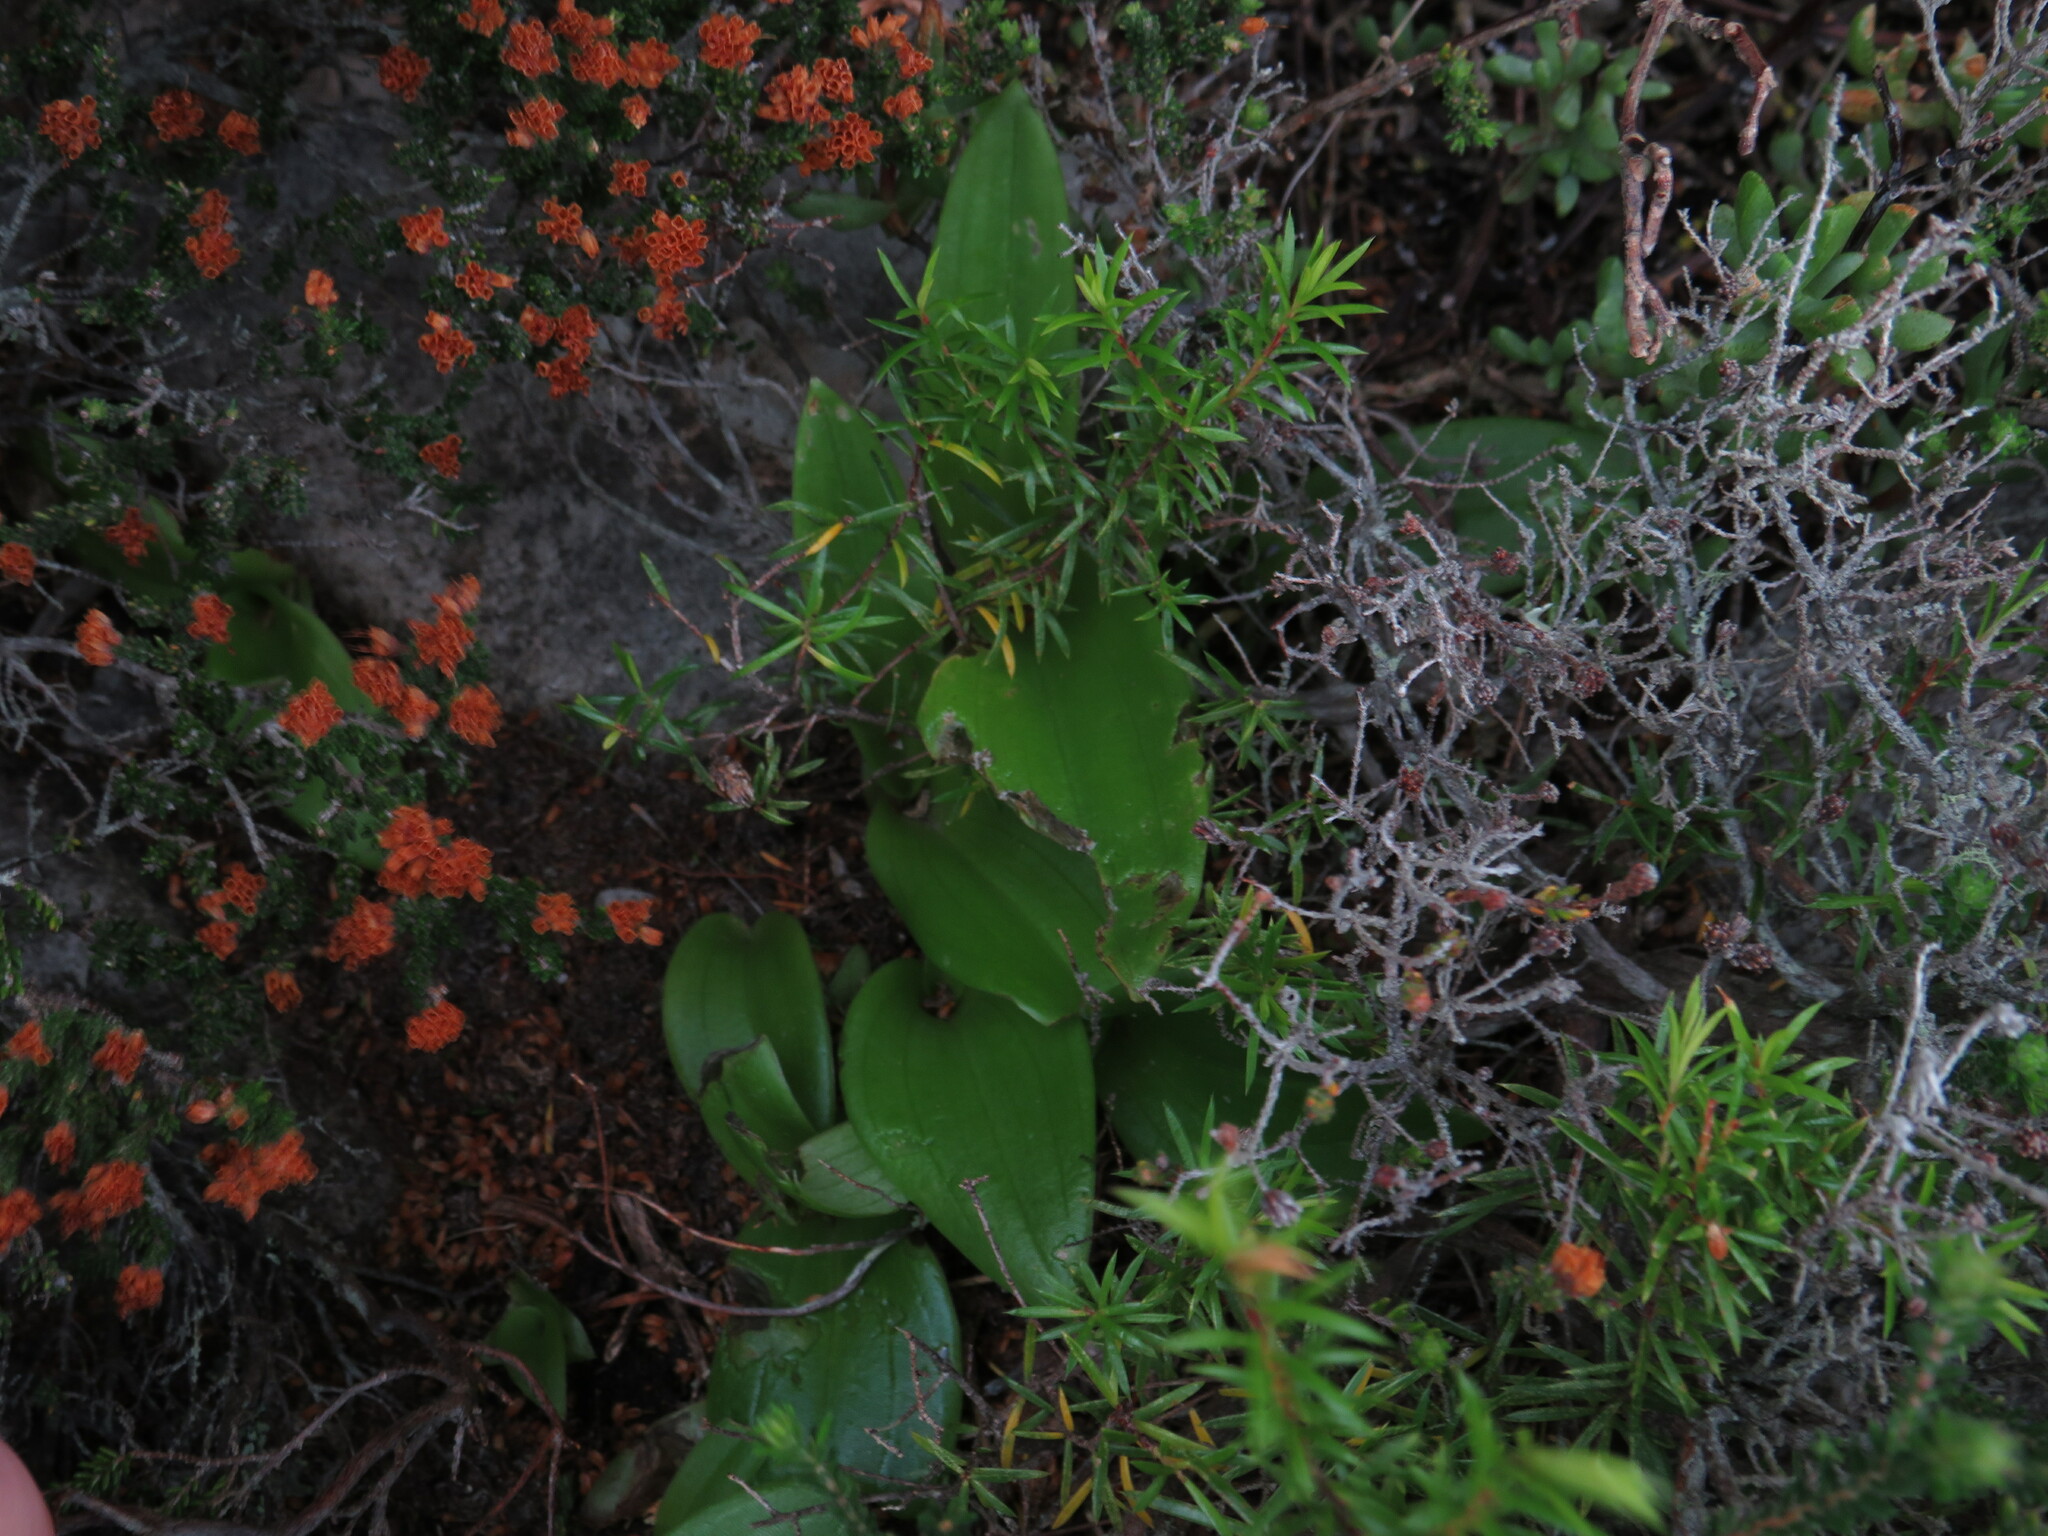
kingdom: Plantae
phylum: Tracheophyta
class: Liliopsida
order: Asparagales
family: Orchidaceae
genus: Satyrium
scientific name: Satyrium odorum
